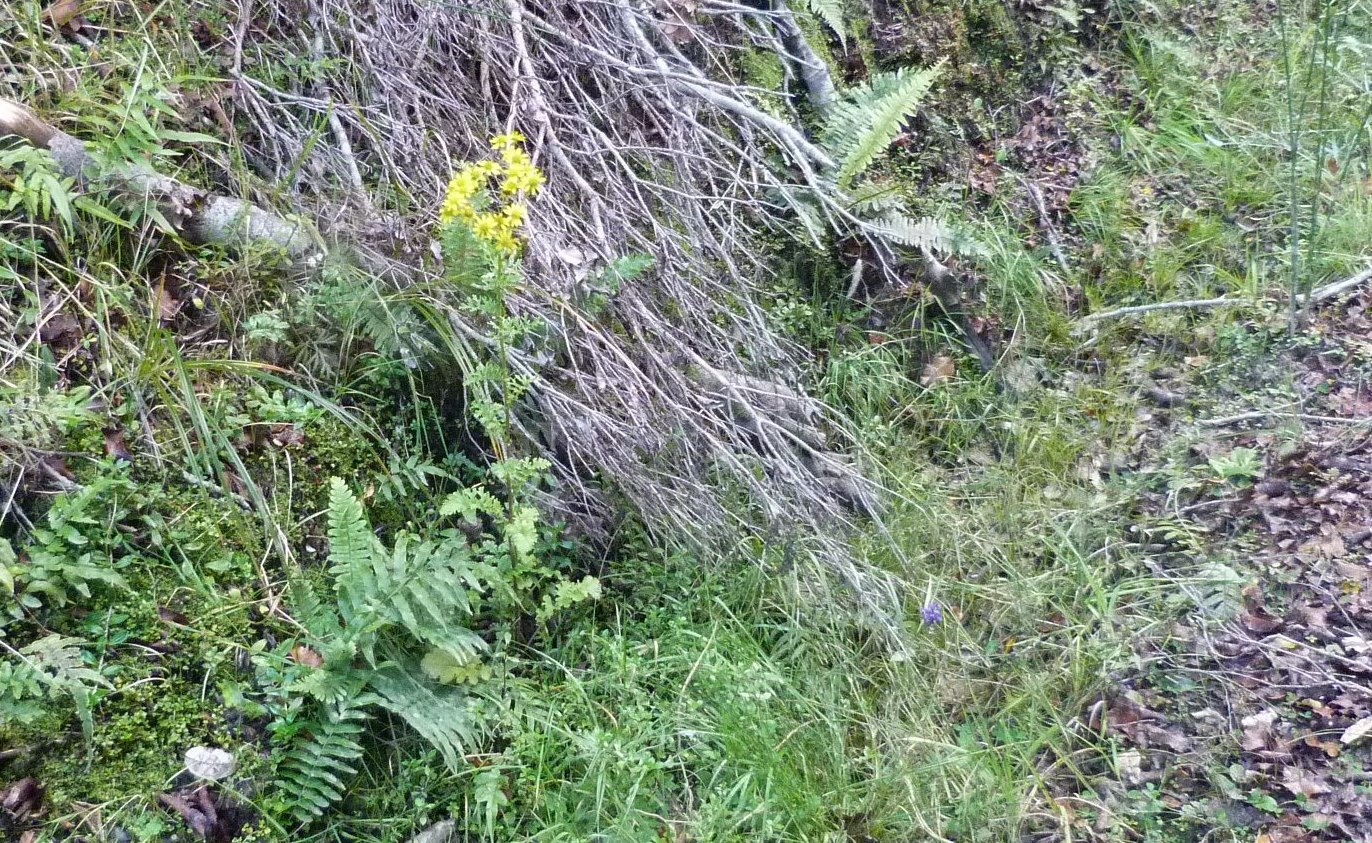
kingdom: Plantae
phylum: Tracheophyta
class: Magnoliopsida
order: Asterales
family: Asteraceae
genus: Jacobaea
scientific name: Jacobaea vulgaris
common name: Stinking willie
